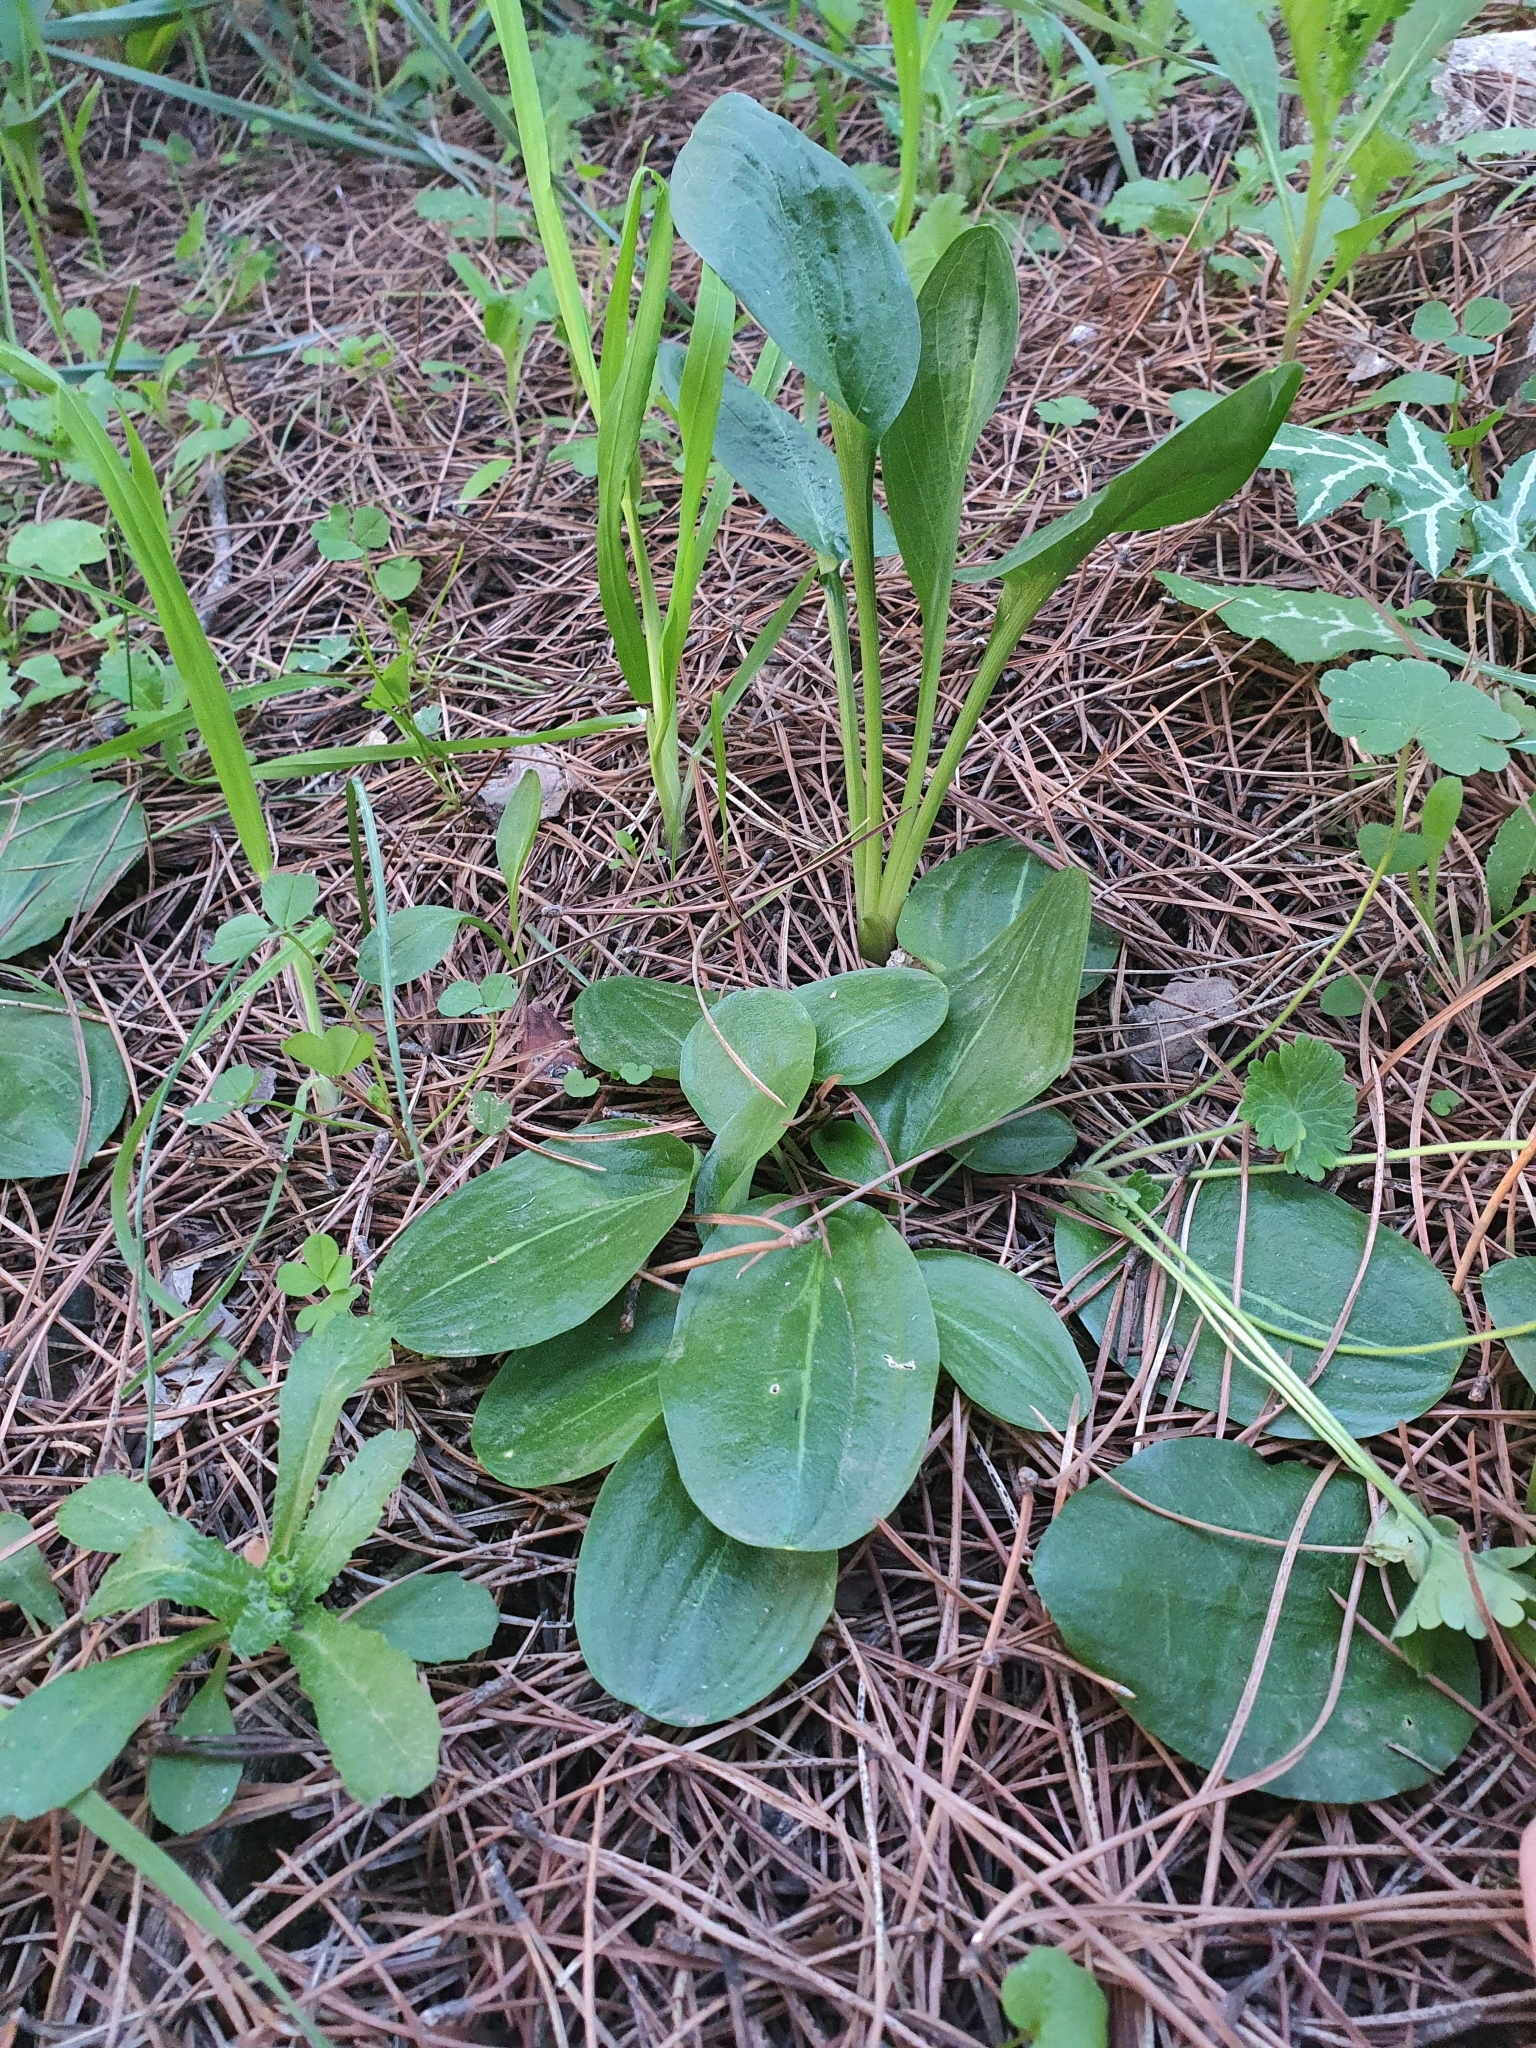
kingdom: Plantae
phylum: Tracheophyta
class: Liliopsida
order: Alismatales
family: Araceae
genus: Ambrosina
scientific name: Ambrosina bassii
